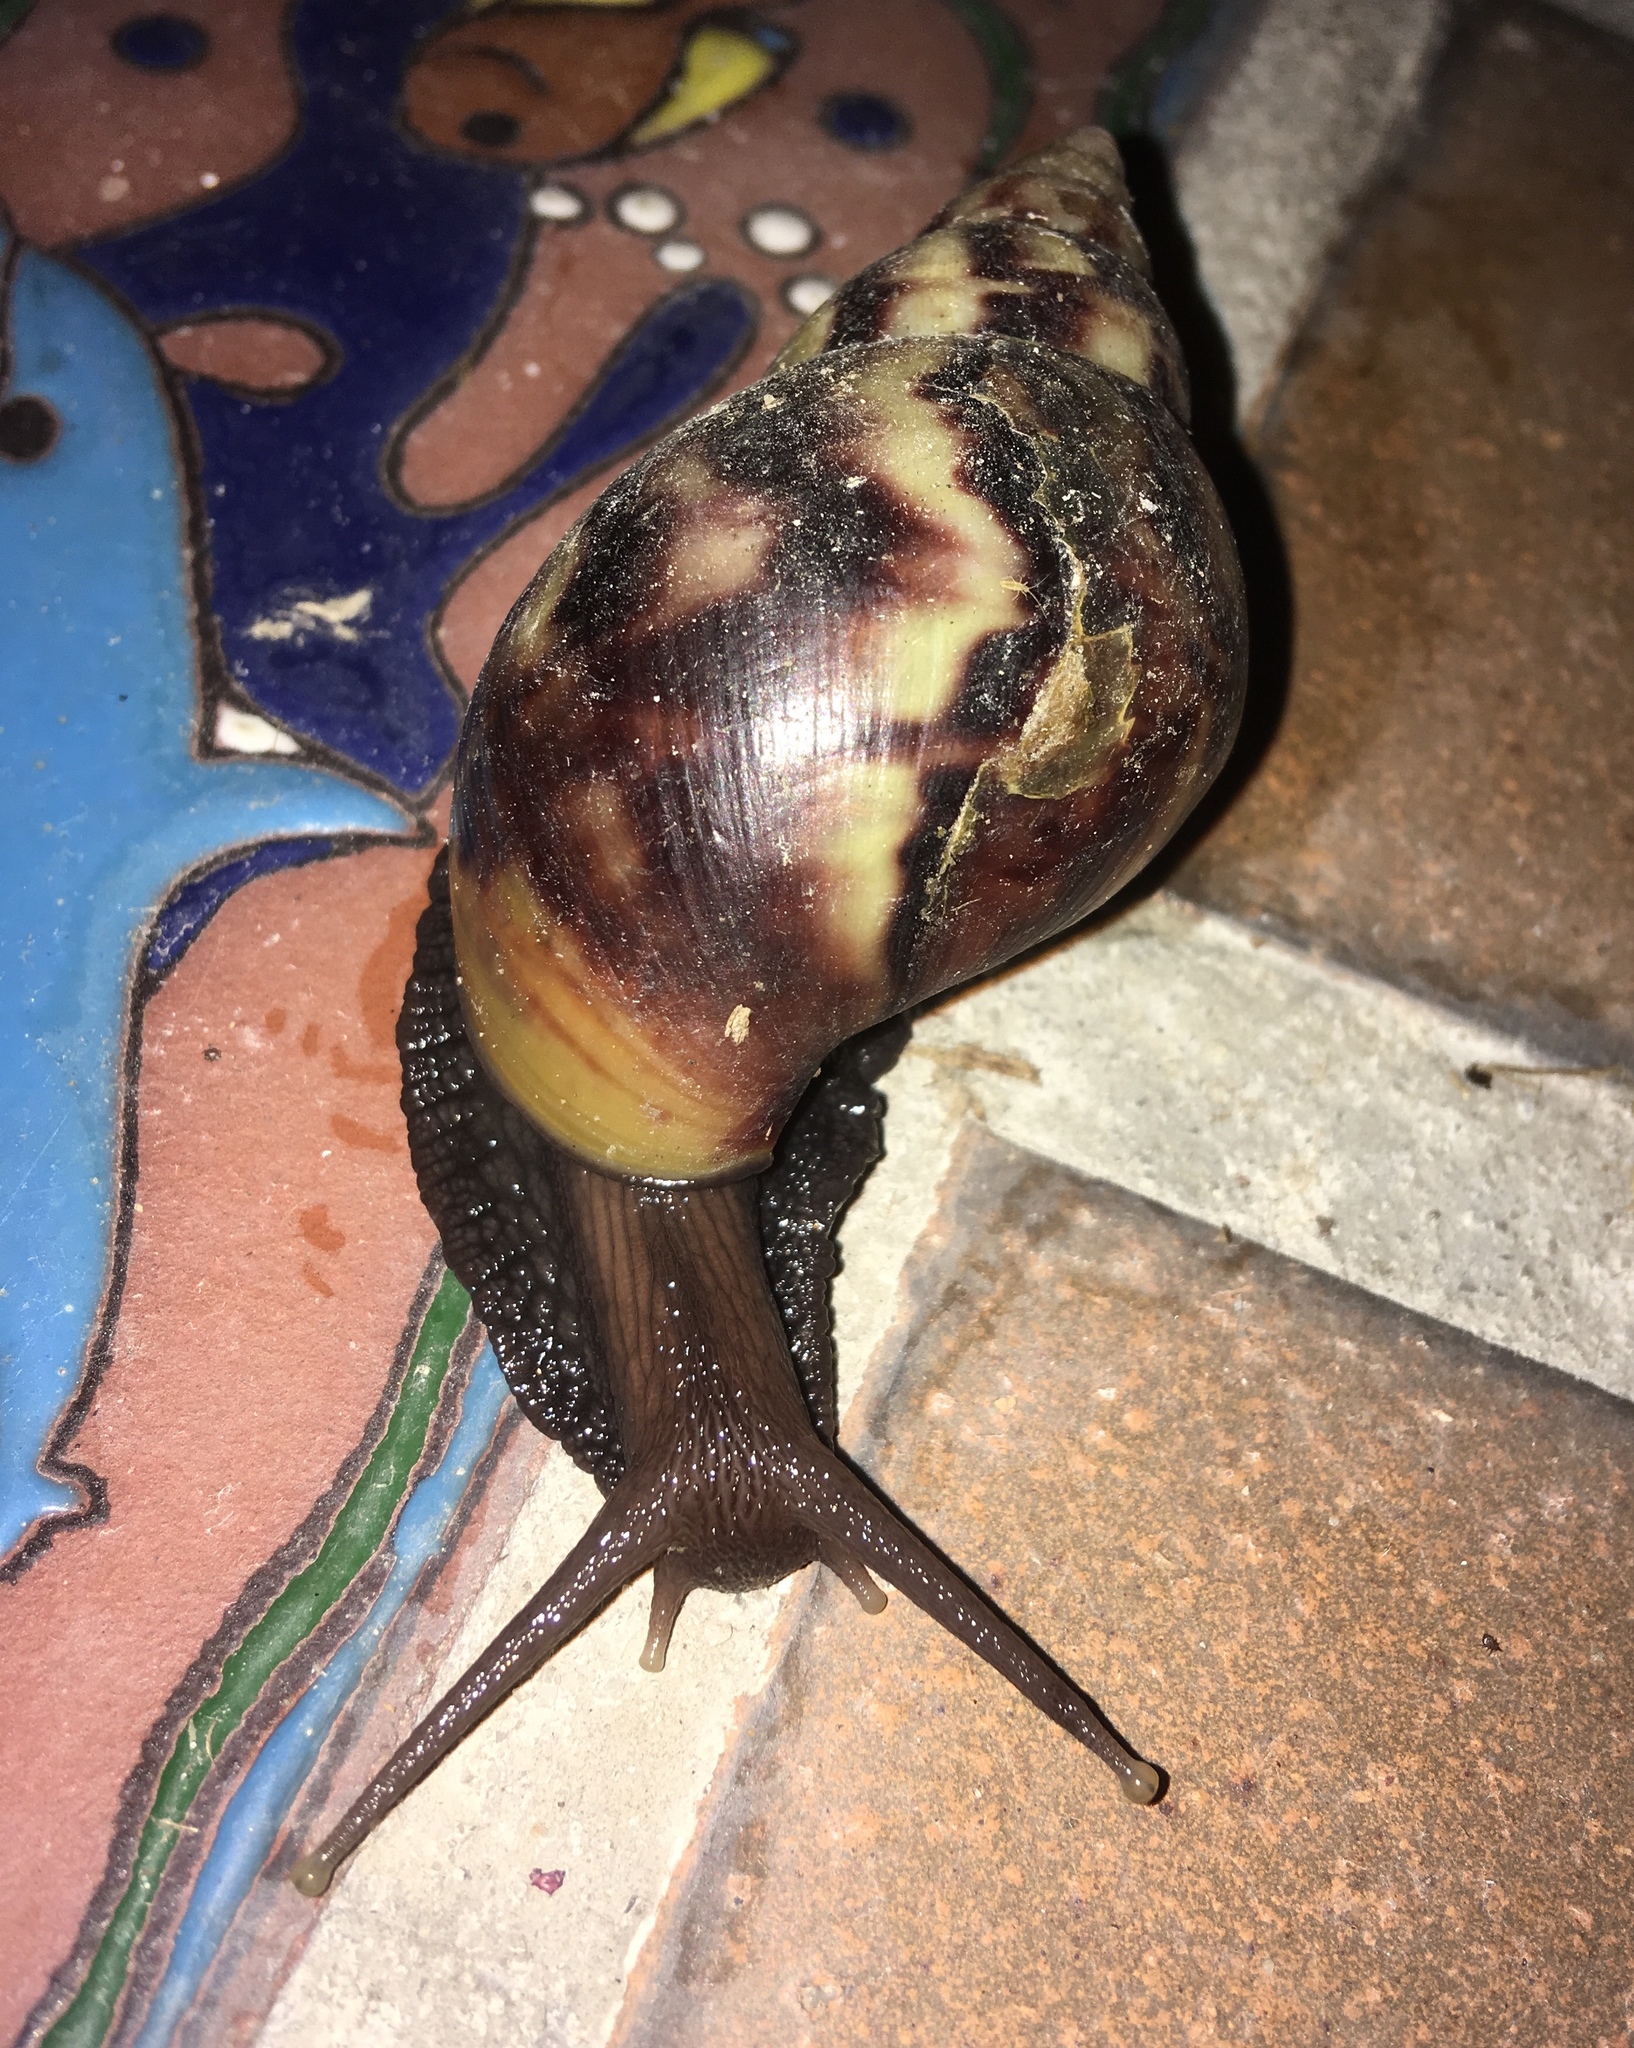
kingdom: Animalia
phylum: Mollusca
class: Gastropoda
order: Stylommatophora
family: Achatinidae
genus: Lissachatina
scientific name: Lissachatina fulica
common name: Giant african snail
